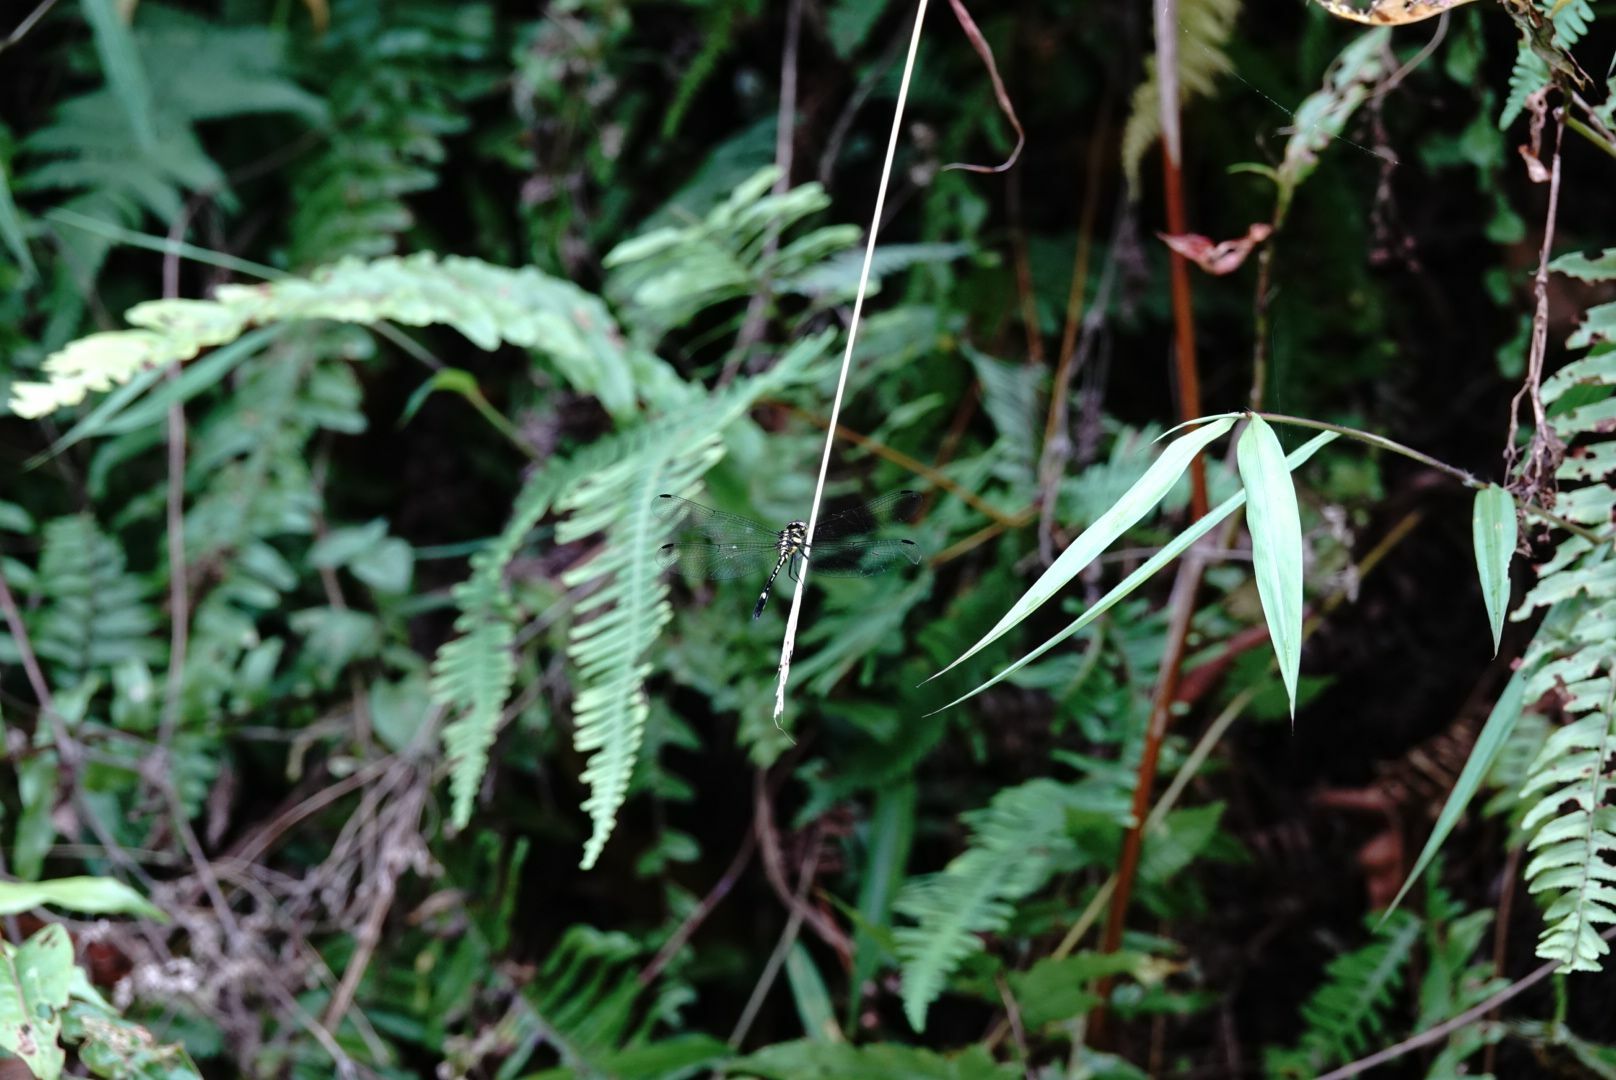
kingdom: Animalia
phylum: Arthropoda
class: Insecta
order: Odonata
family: Libellulidae
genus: Hylaeothemis
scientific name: Hylaeothemis apicalis
